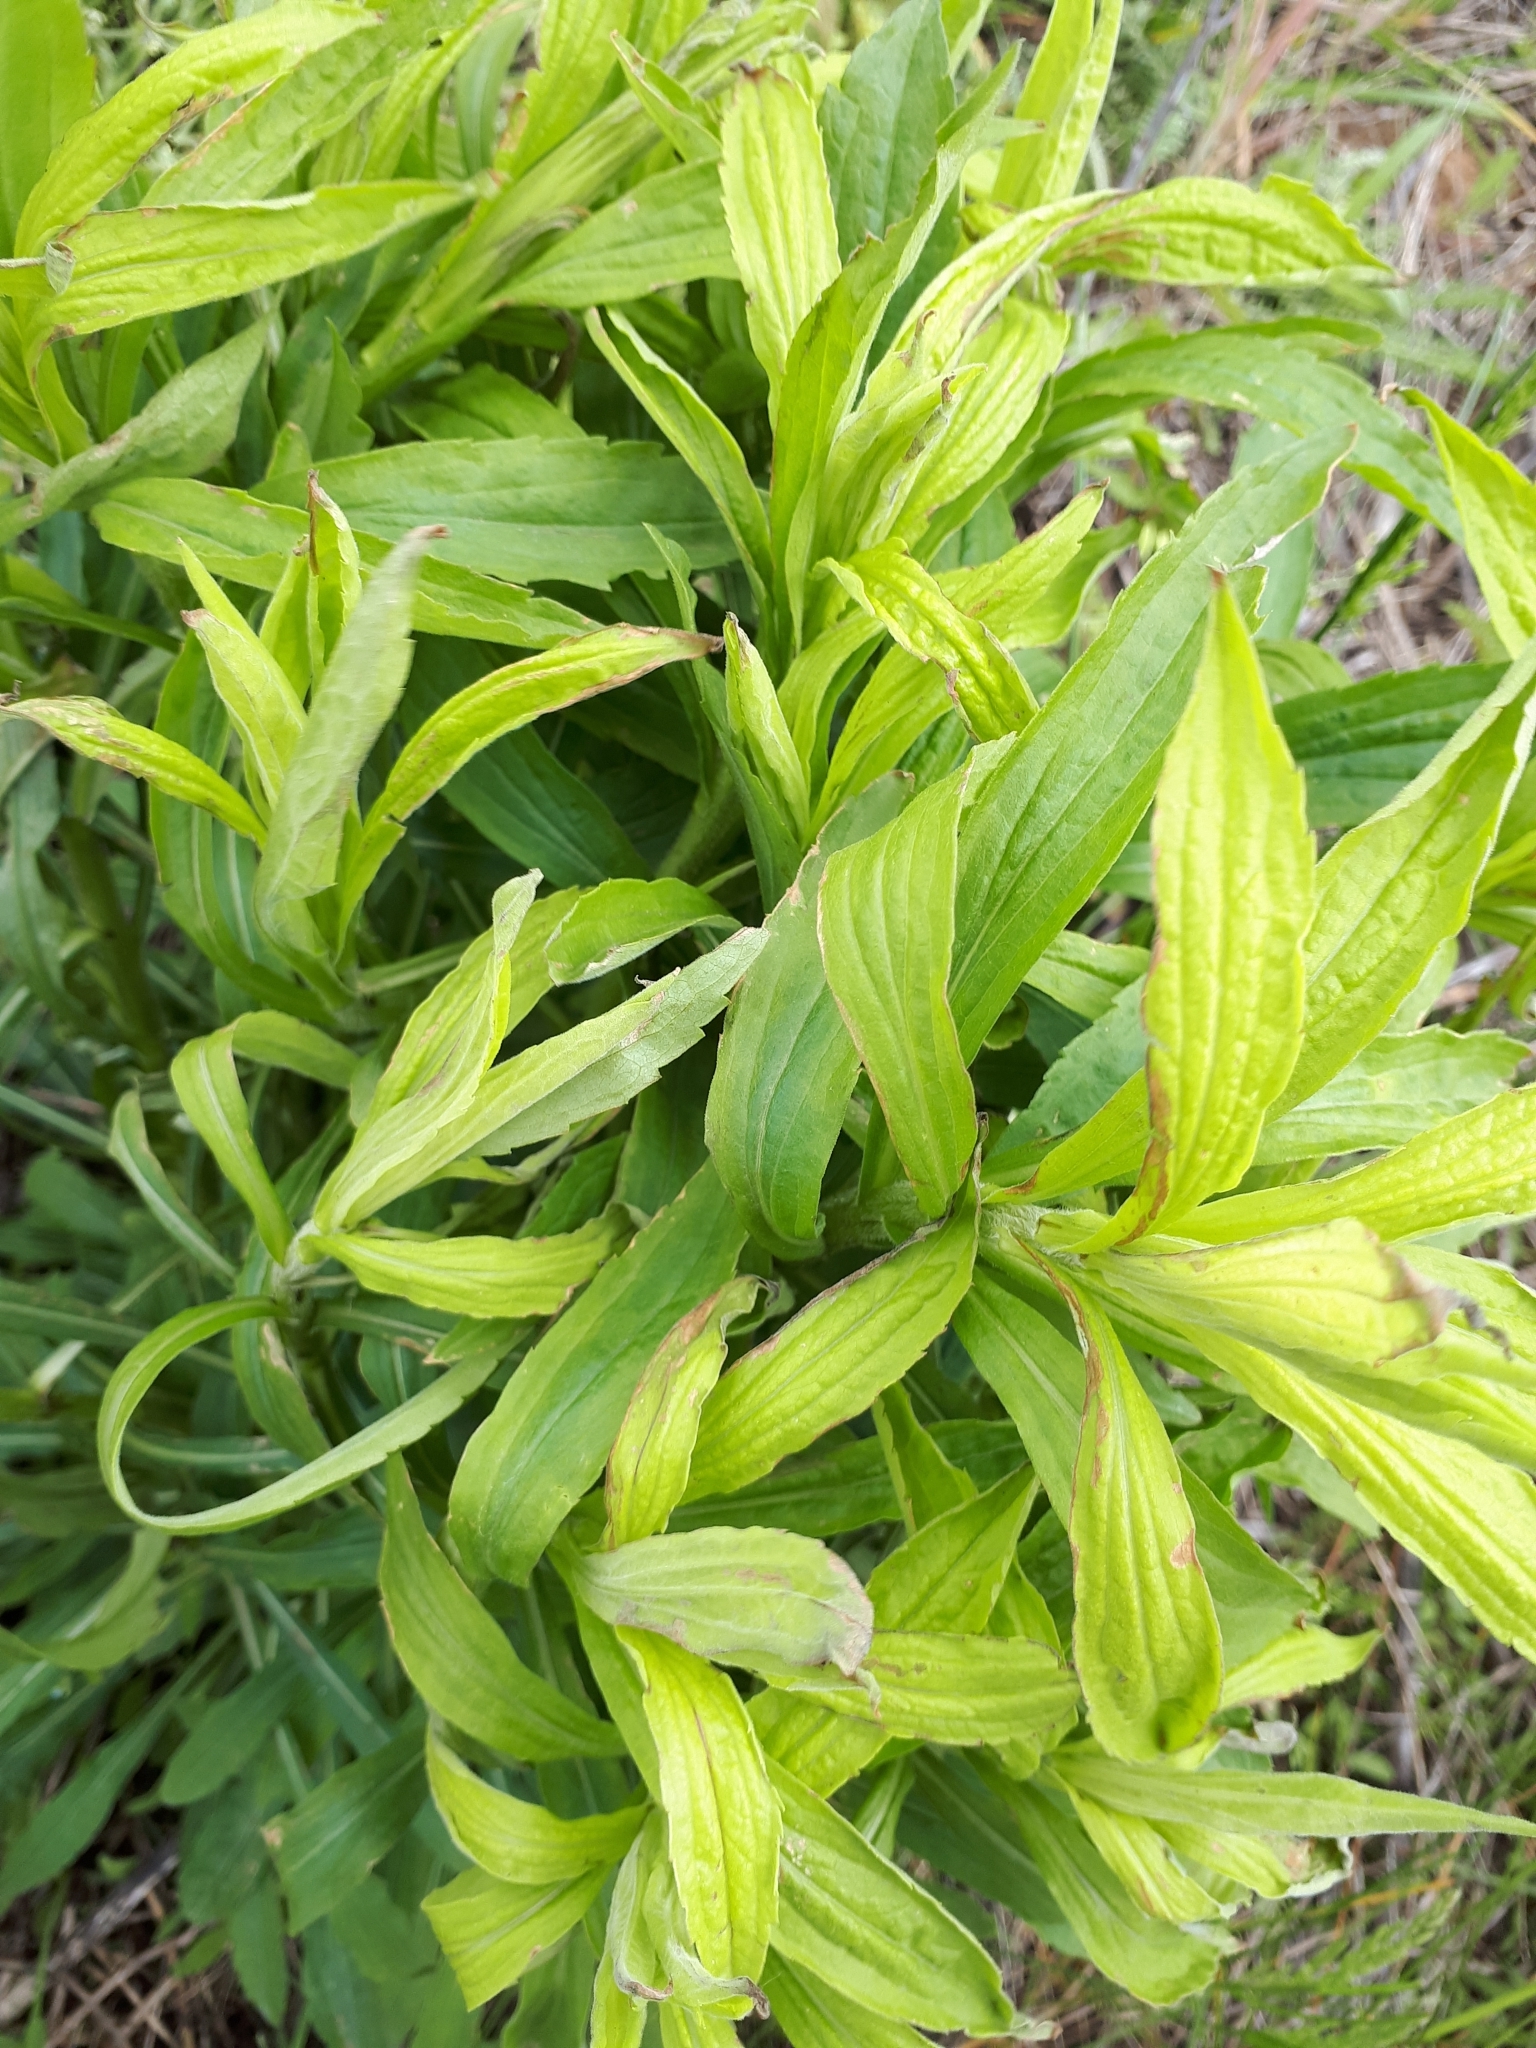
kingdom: Plantae
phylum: Tracheophyta
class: Magnoliopsida
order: Asterales
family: Asteraceae
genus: Solidago
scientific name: Solidago canadensis
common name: Canada goldenrod
